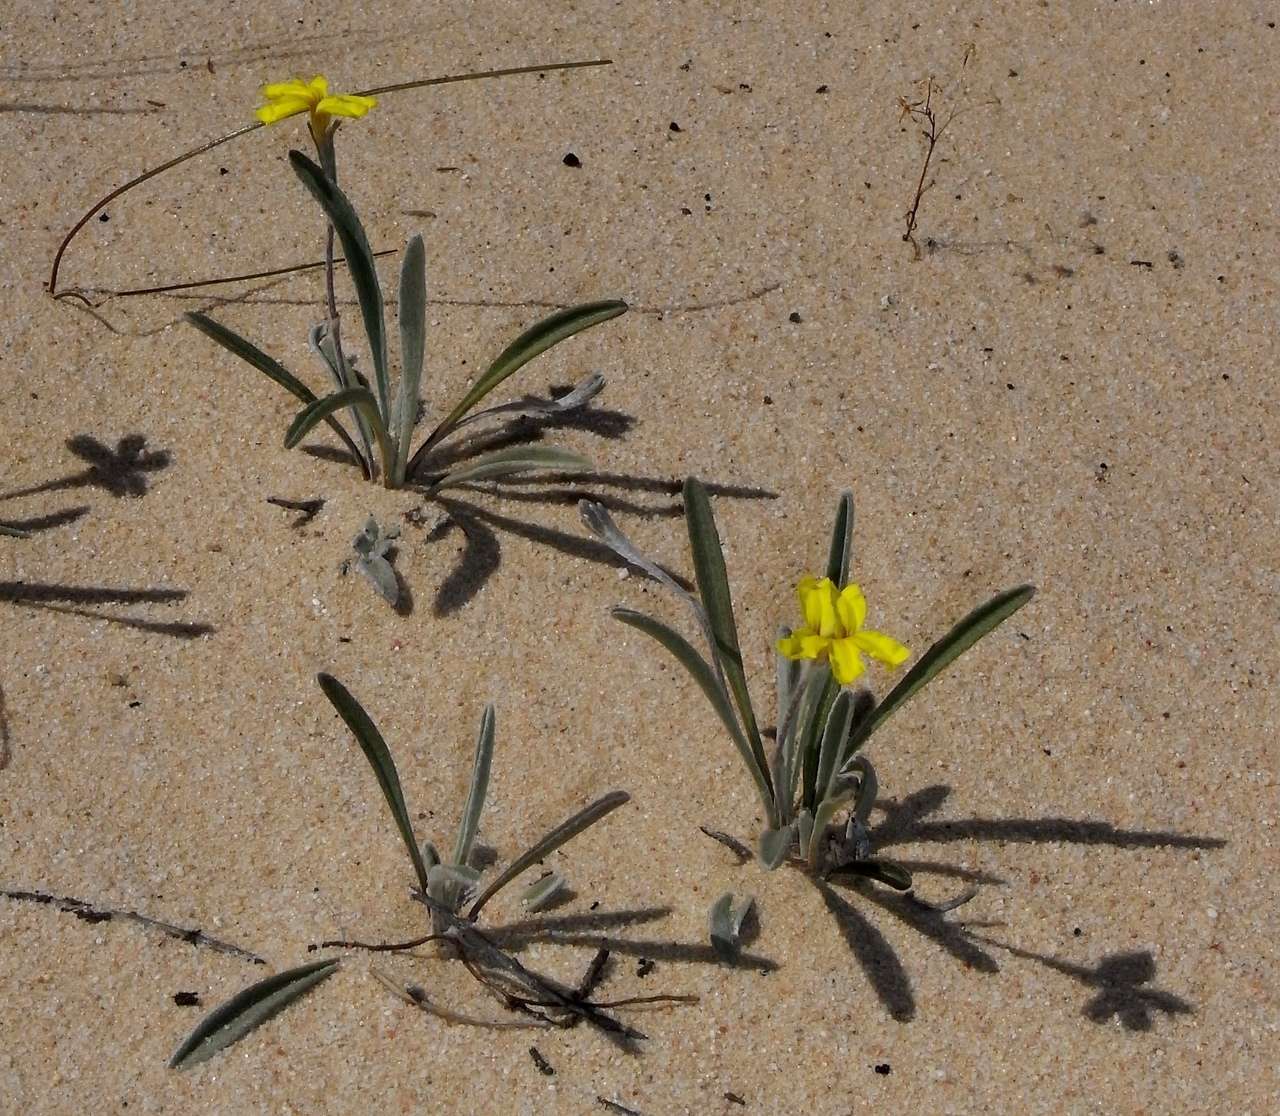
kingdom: Plantae
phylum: Tracheophyta
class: Magnoliopsida
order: Asterales
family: Goodeniaceae
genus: Goodenia
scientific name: Goodenia willisiana
